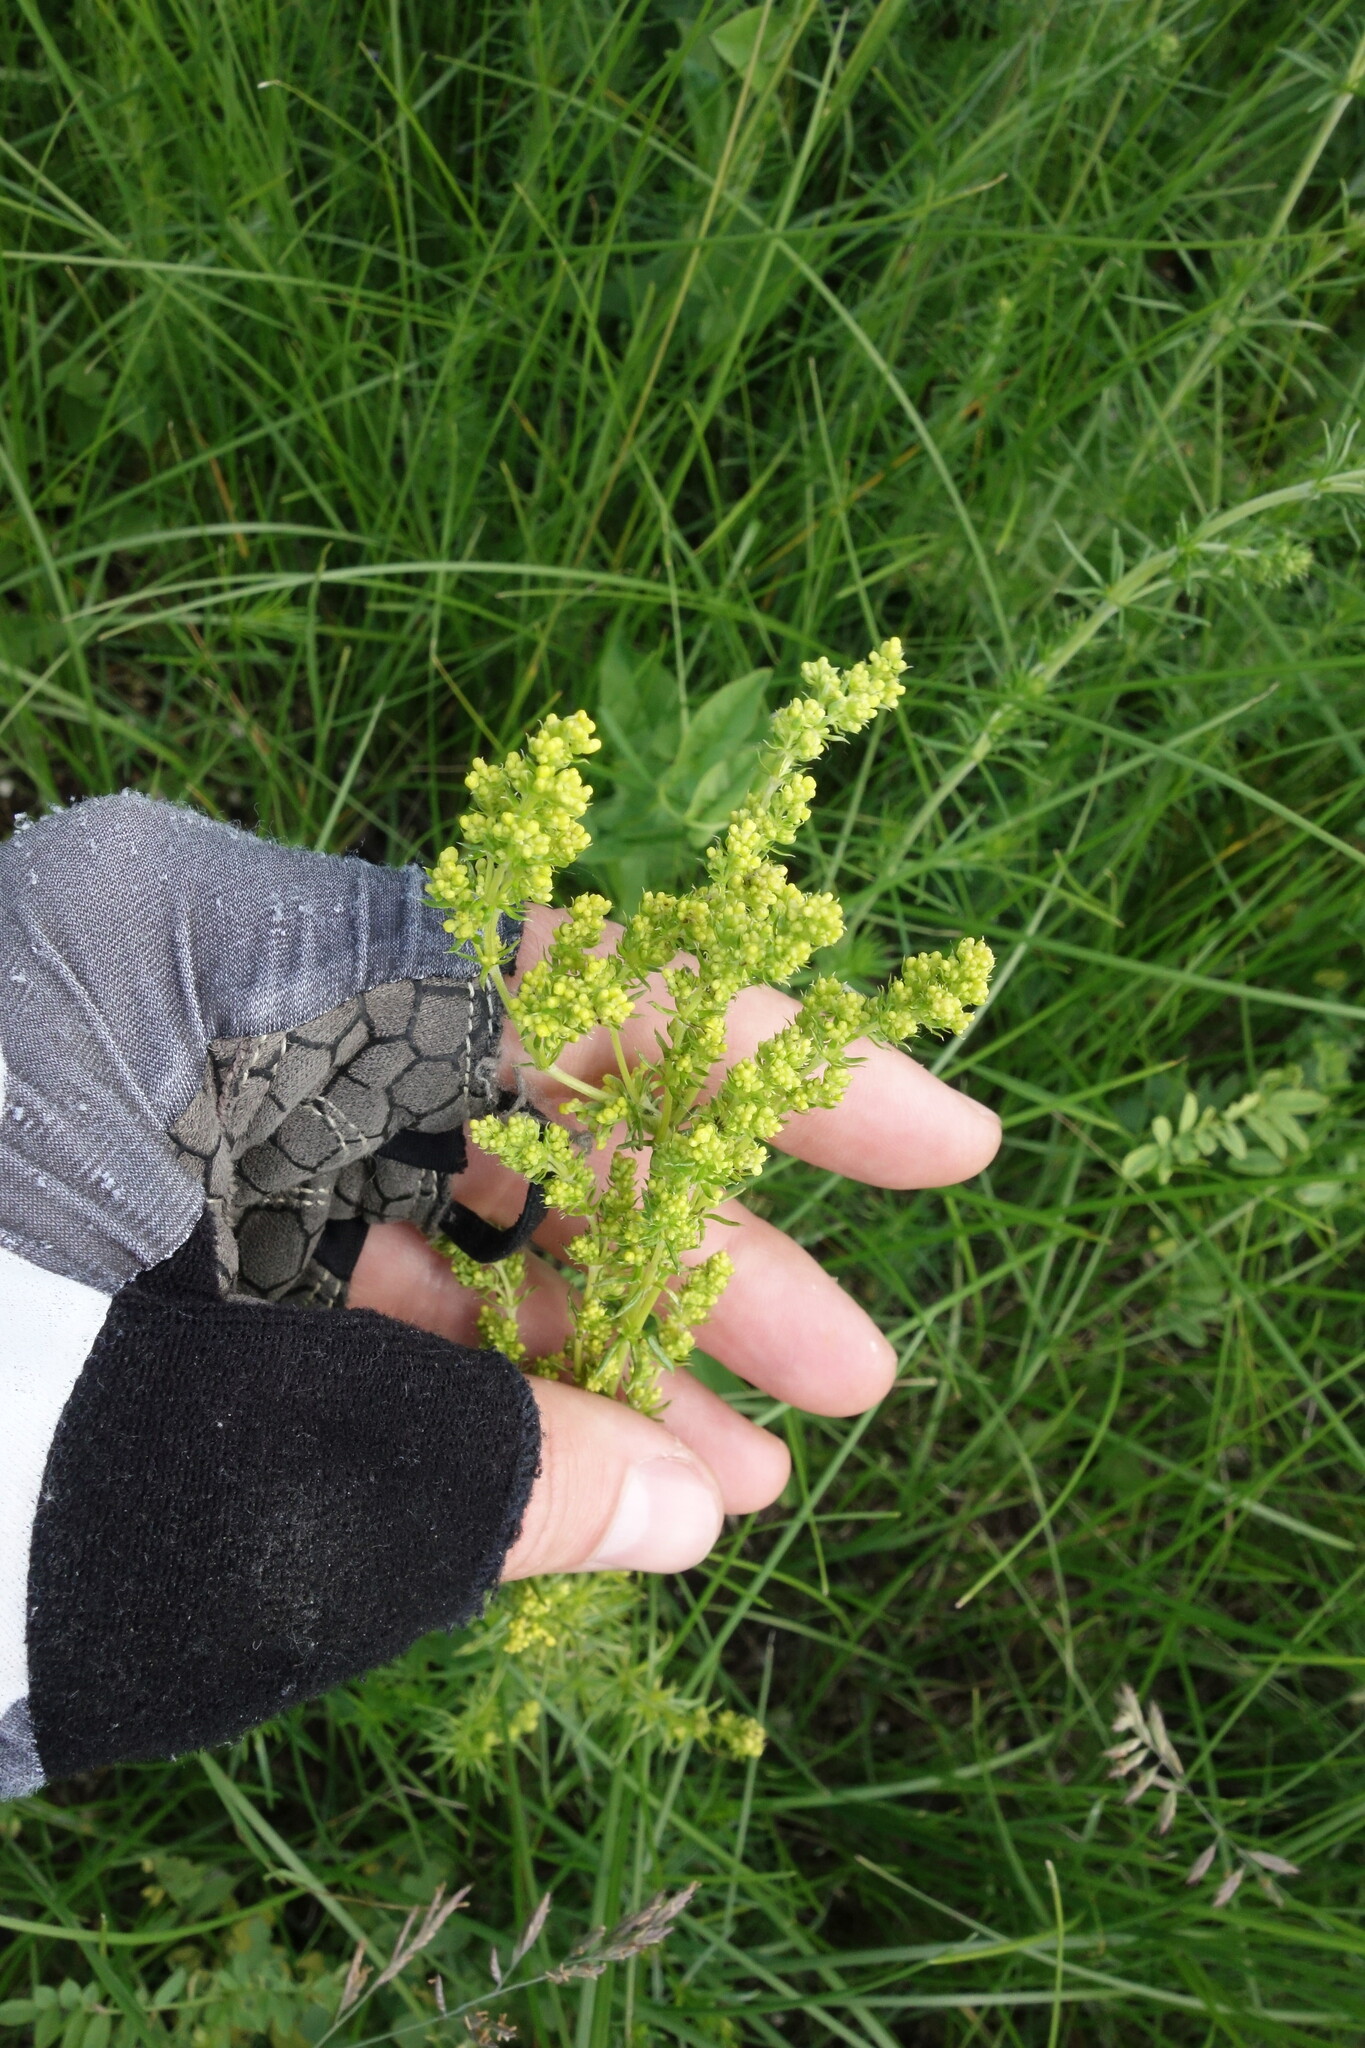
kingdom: Plantae
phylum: Tracheophyta
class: Magnoliopsida
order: Gentianales
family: Rubiaceae
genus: Galium
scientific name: Galium verum
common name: Lady's bedstraw
